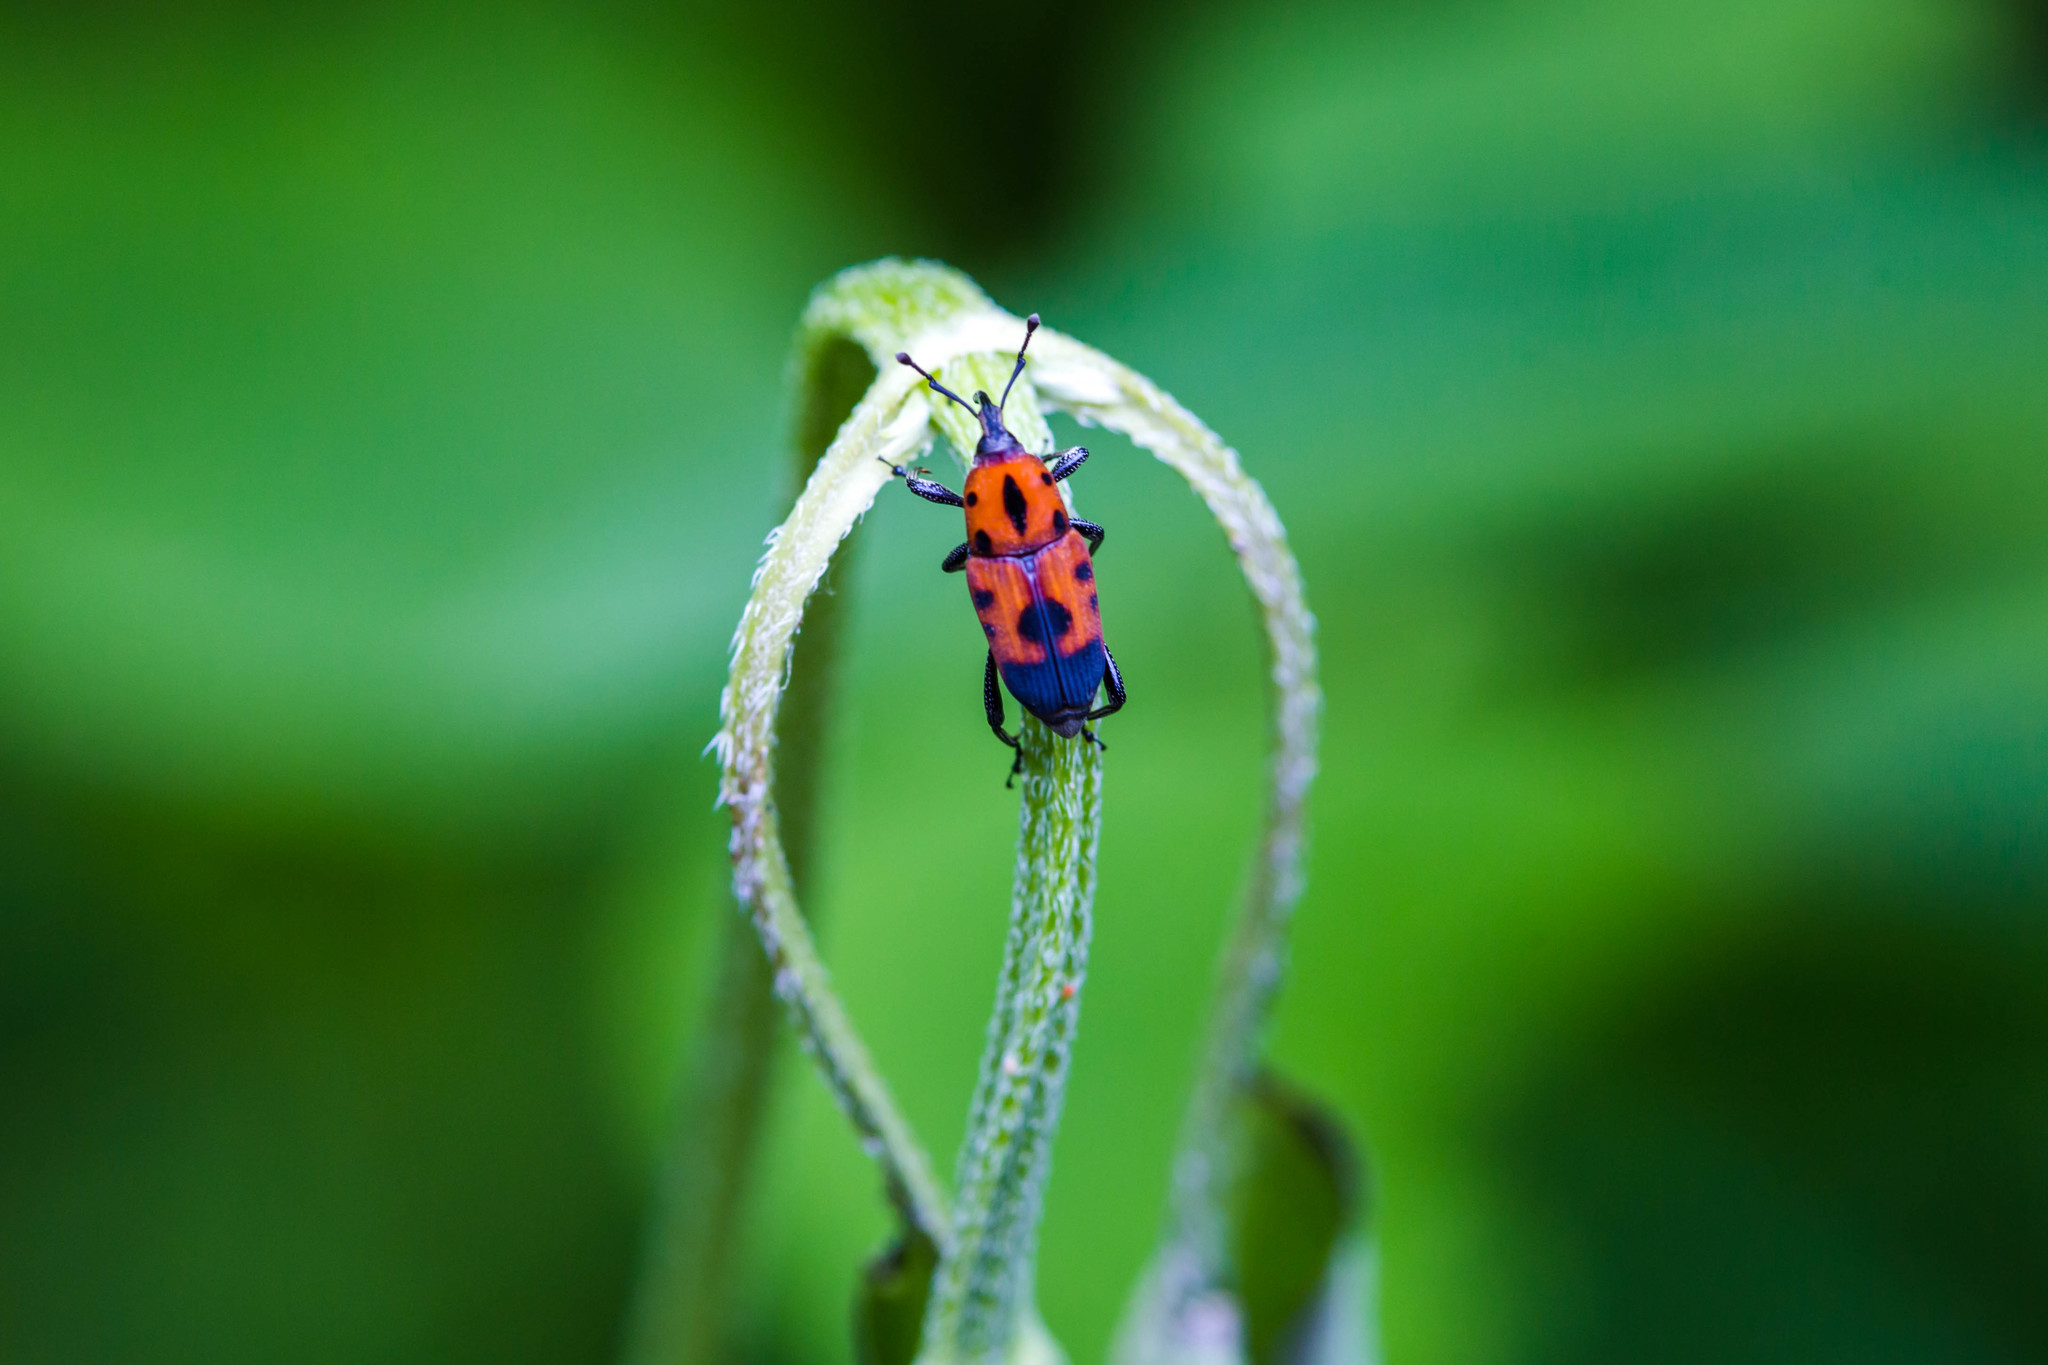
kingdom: Animalia
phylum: Arthropoda
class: Insecta
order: Coleoptera
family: Dryophthoridae
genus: Rhodobaenus
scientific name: Rhodobaenus quinquepunctatus
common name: Cocklebur weevil
